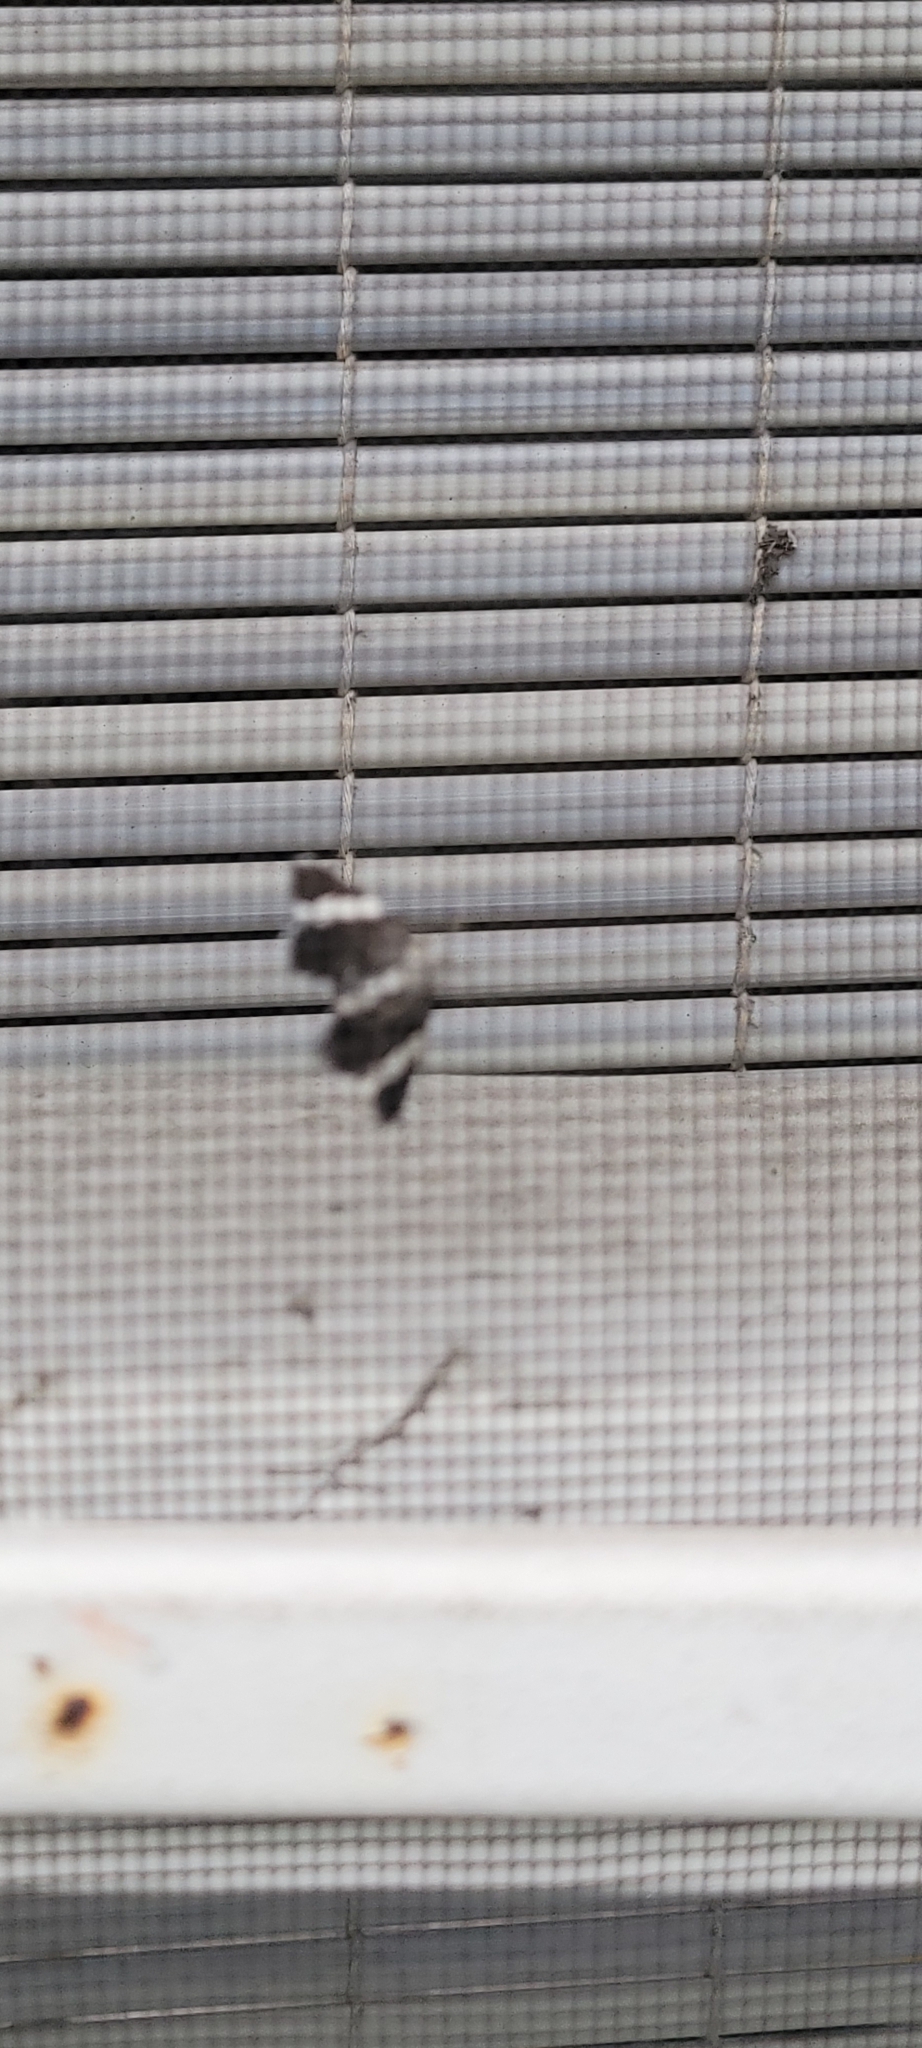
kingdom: Animalia
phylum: Arthropoda
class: Insecta
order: Lepidoptera
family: Geometridae
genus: Trichodezia
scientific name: Trichodezia albovittata
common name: White striped black
